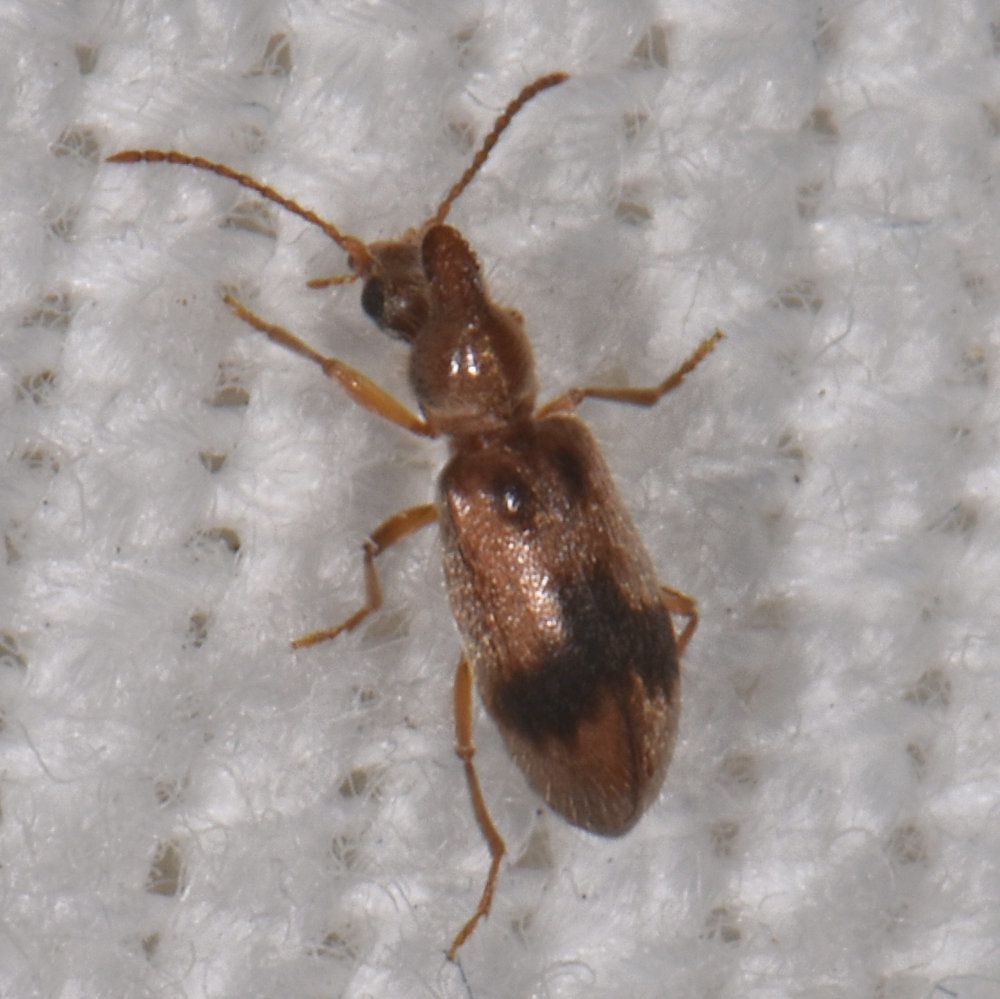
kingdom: Animalia
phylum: Arthropoda
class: Insecta
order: Coleoptera
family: Anthicidae
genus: Notoxus
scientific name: Notoxus desertus
